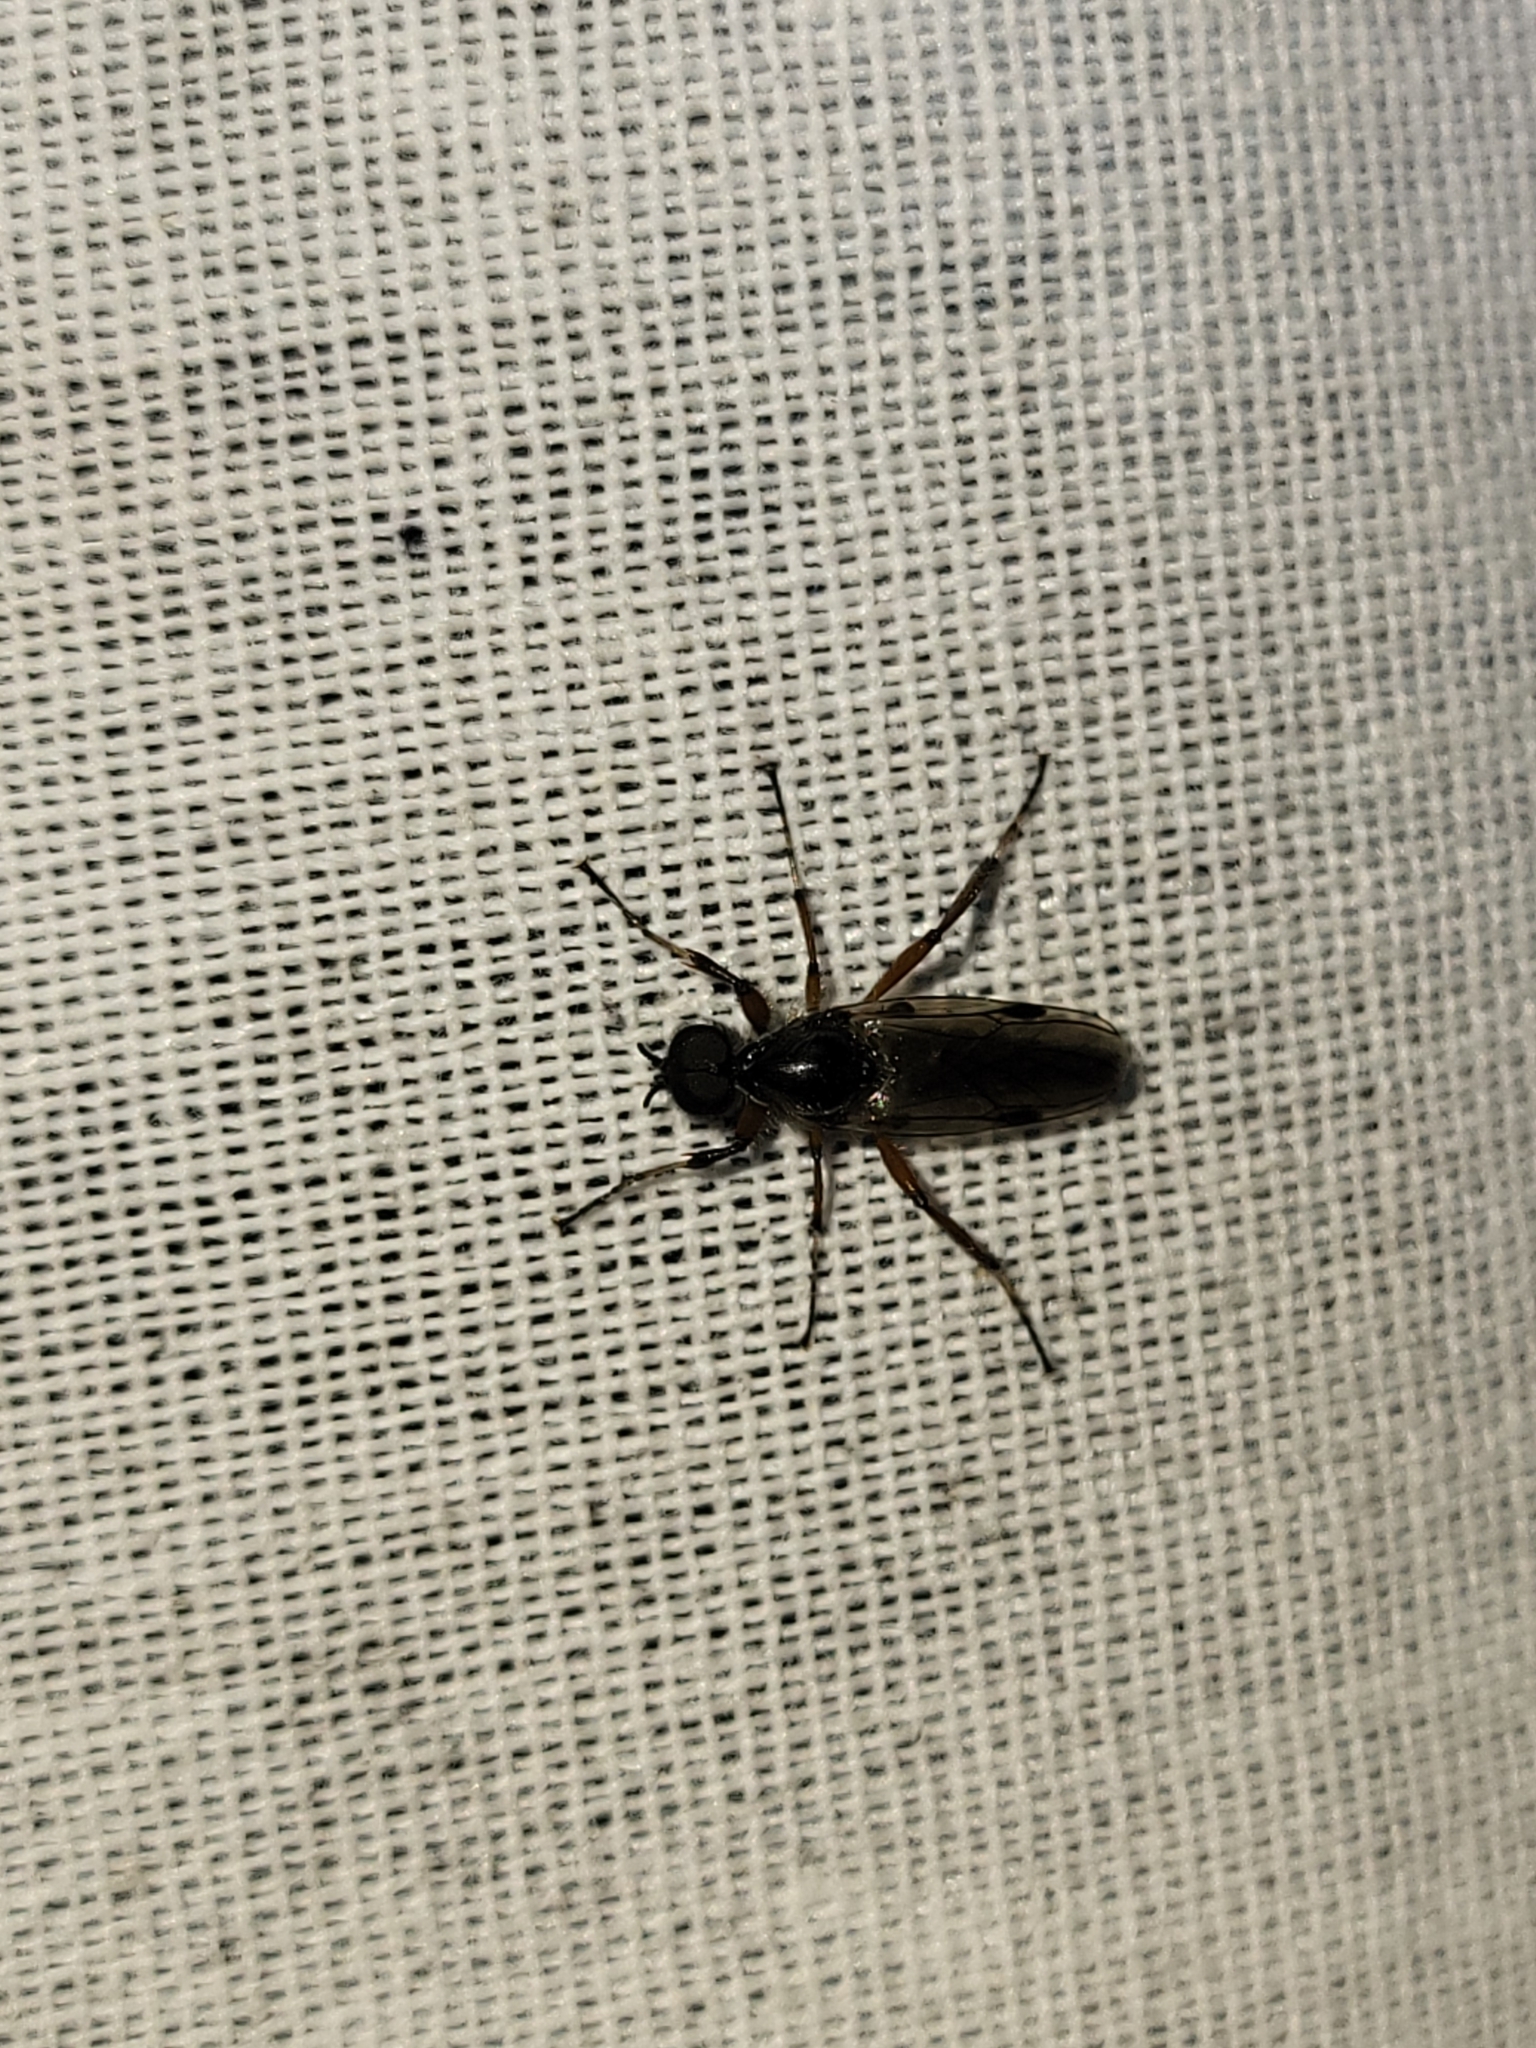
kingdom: Animalia
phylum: Arthropoda
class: Insecta
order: Diptera
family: Bibionidae
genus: Bibio
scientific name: Bibio
